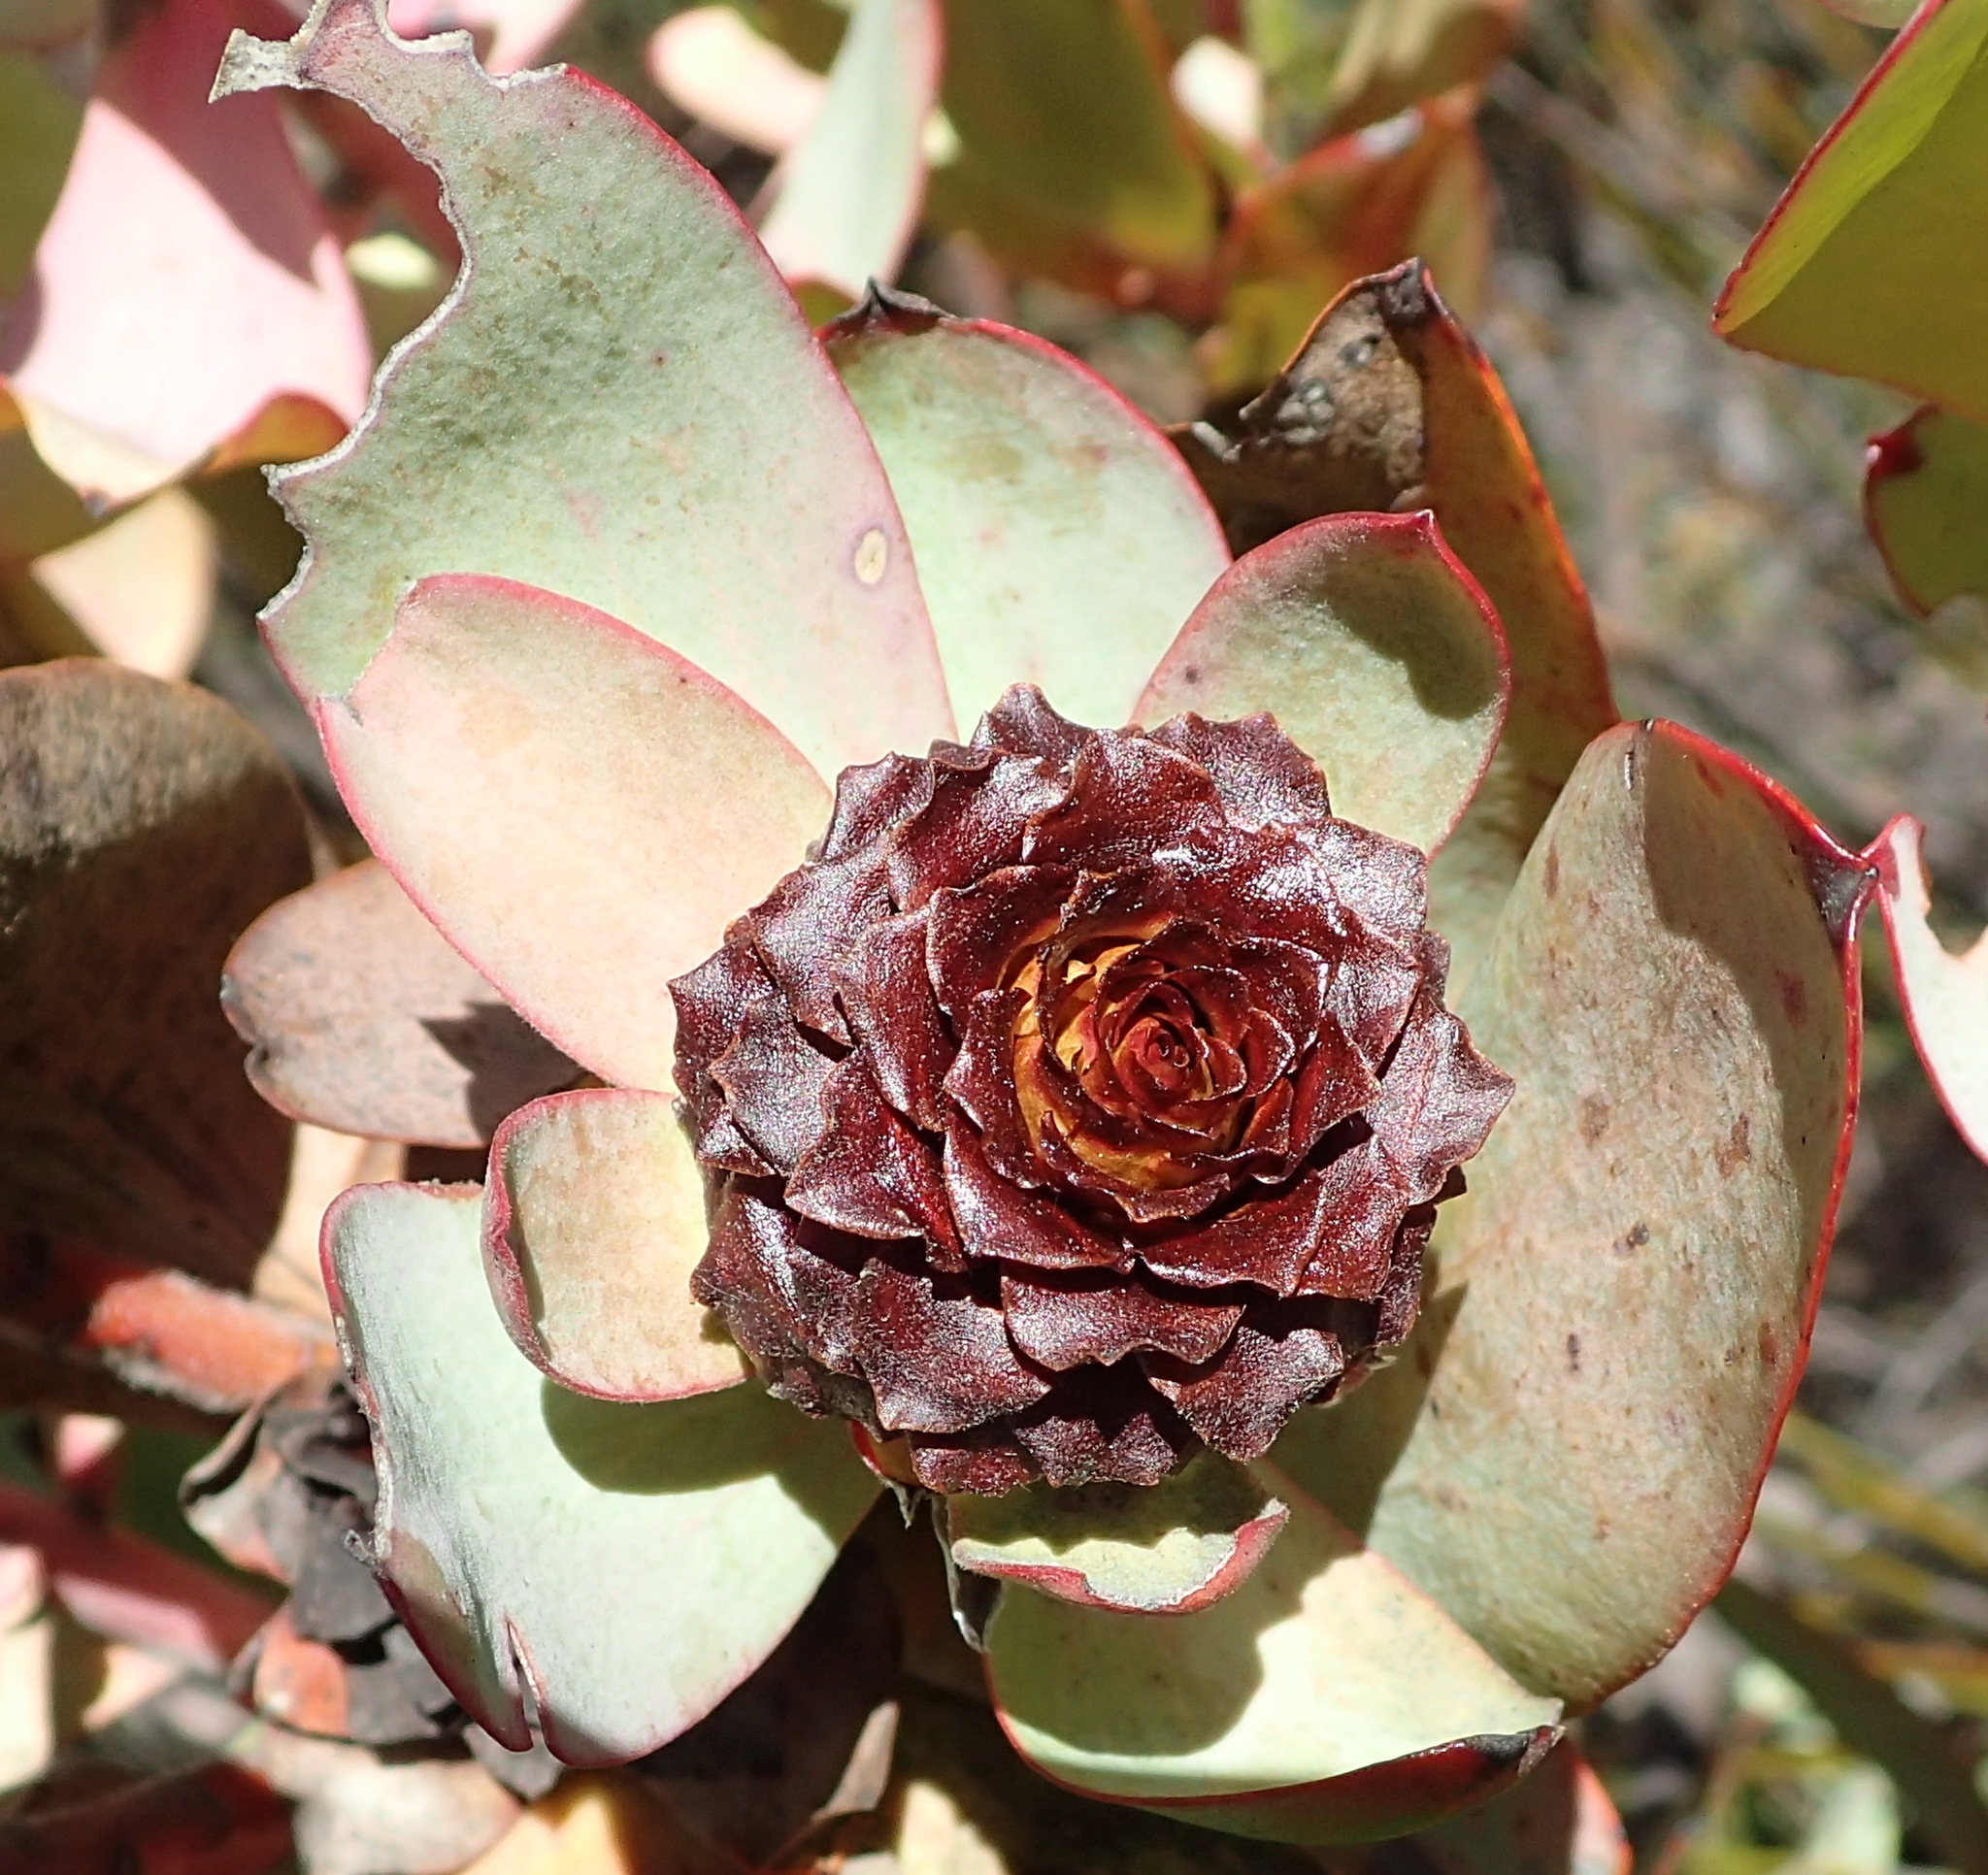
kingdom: Plantae
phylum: Tracheophyta
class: Magnoliopsida
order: Proteales
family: Proteaceae
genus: Leucadendron
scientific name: Leucadendron tinctum
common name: Spicy conebush
